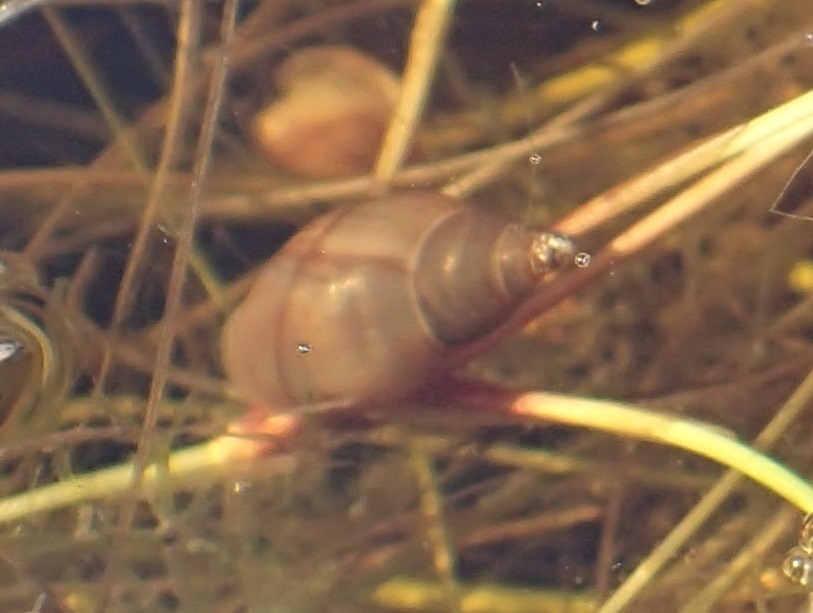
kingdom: Animalia
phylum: Mollusca
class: Gastropoda
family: Planorbidae
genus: Glyptophysa
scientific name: Glyptophysa novaehollandica
